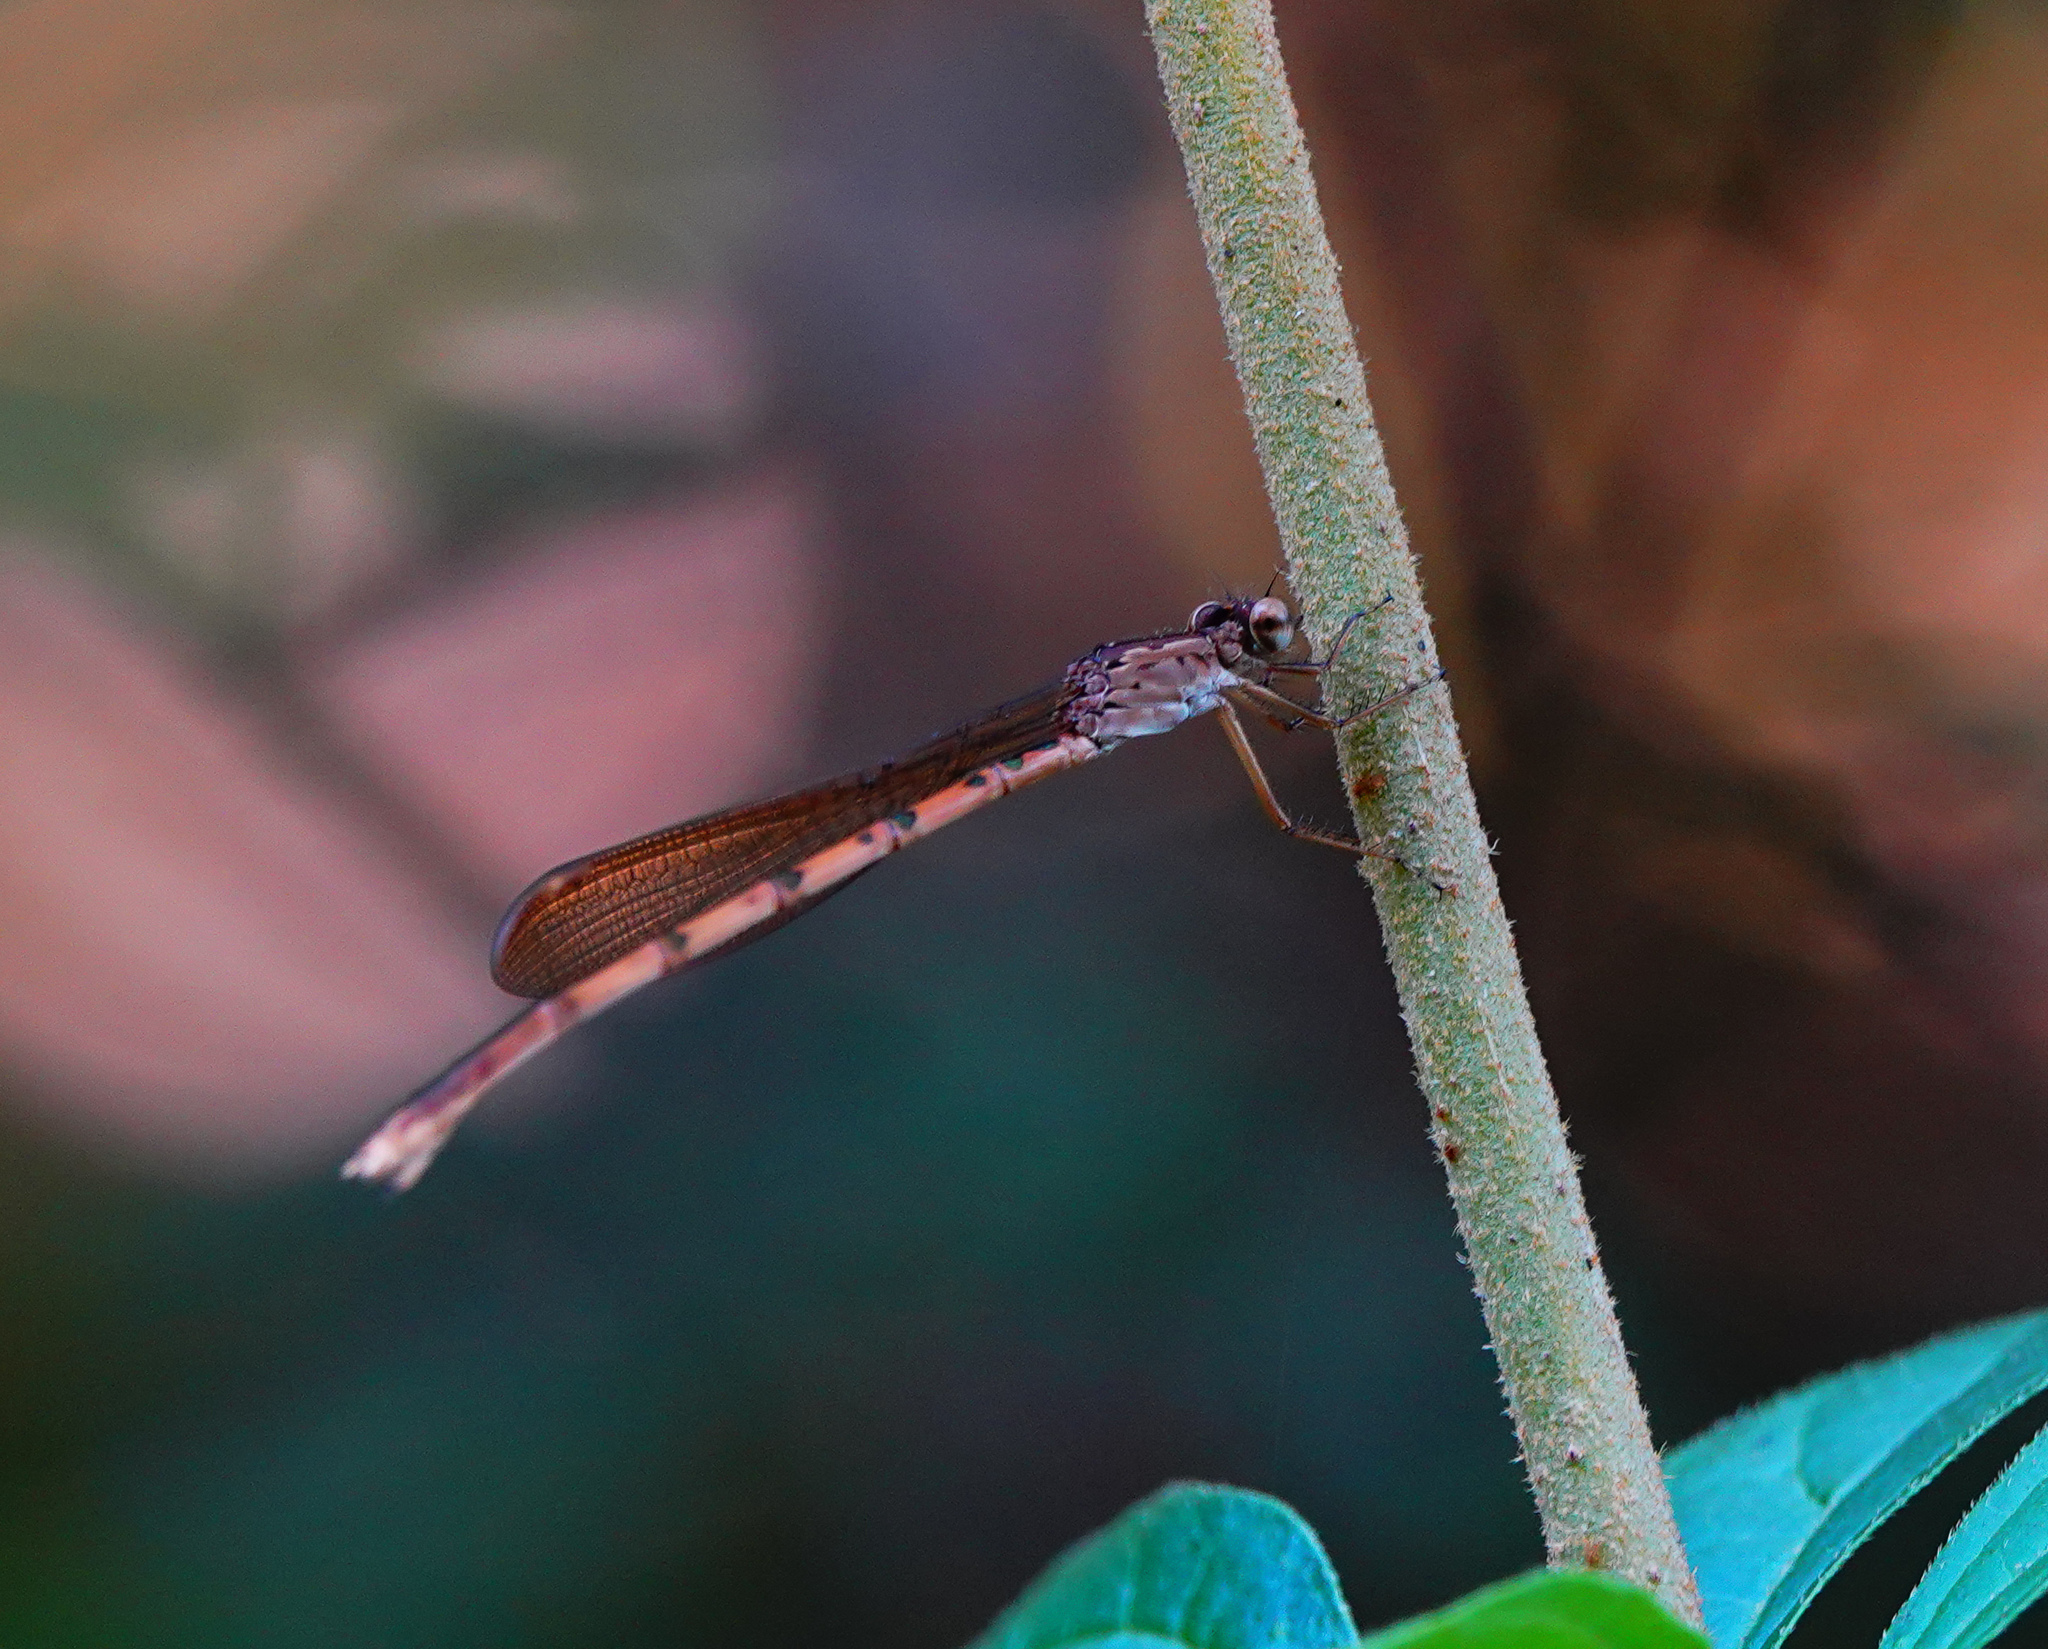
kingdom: Animalia
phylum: Arthropoda
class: Insecta
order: Odonata
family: Lestidae
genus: Indolestes
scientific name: Indolestes indicus
